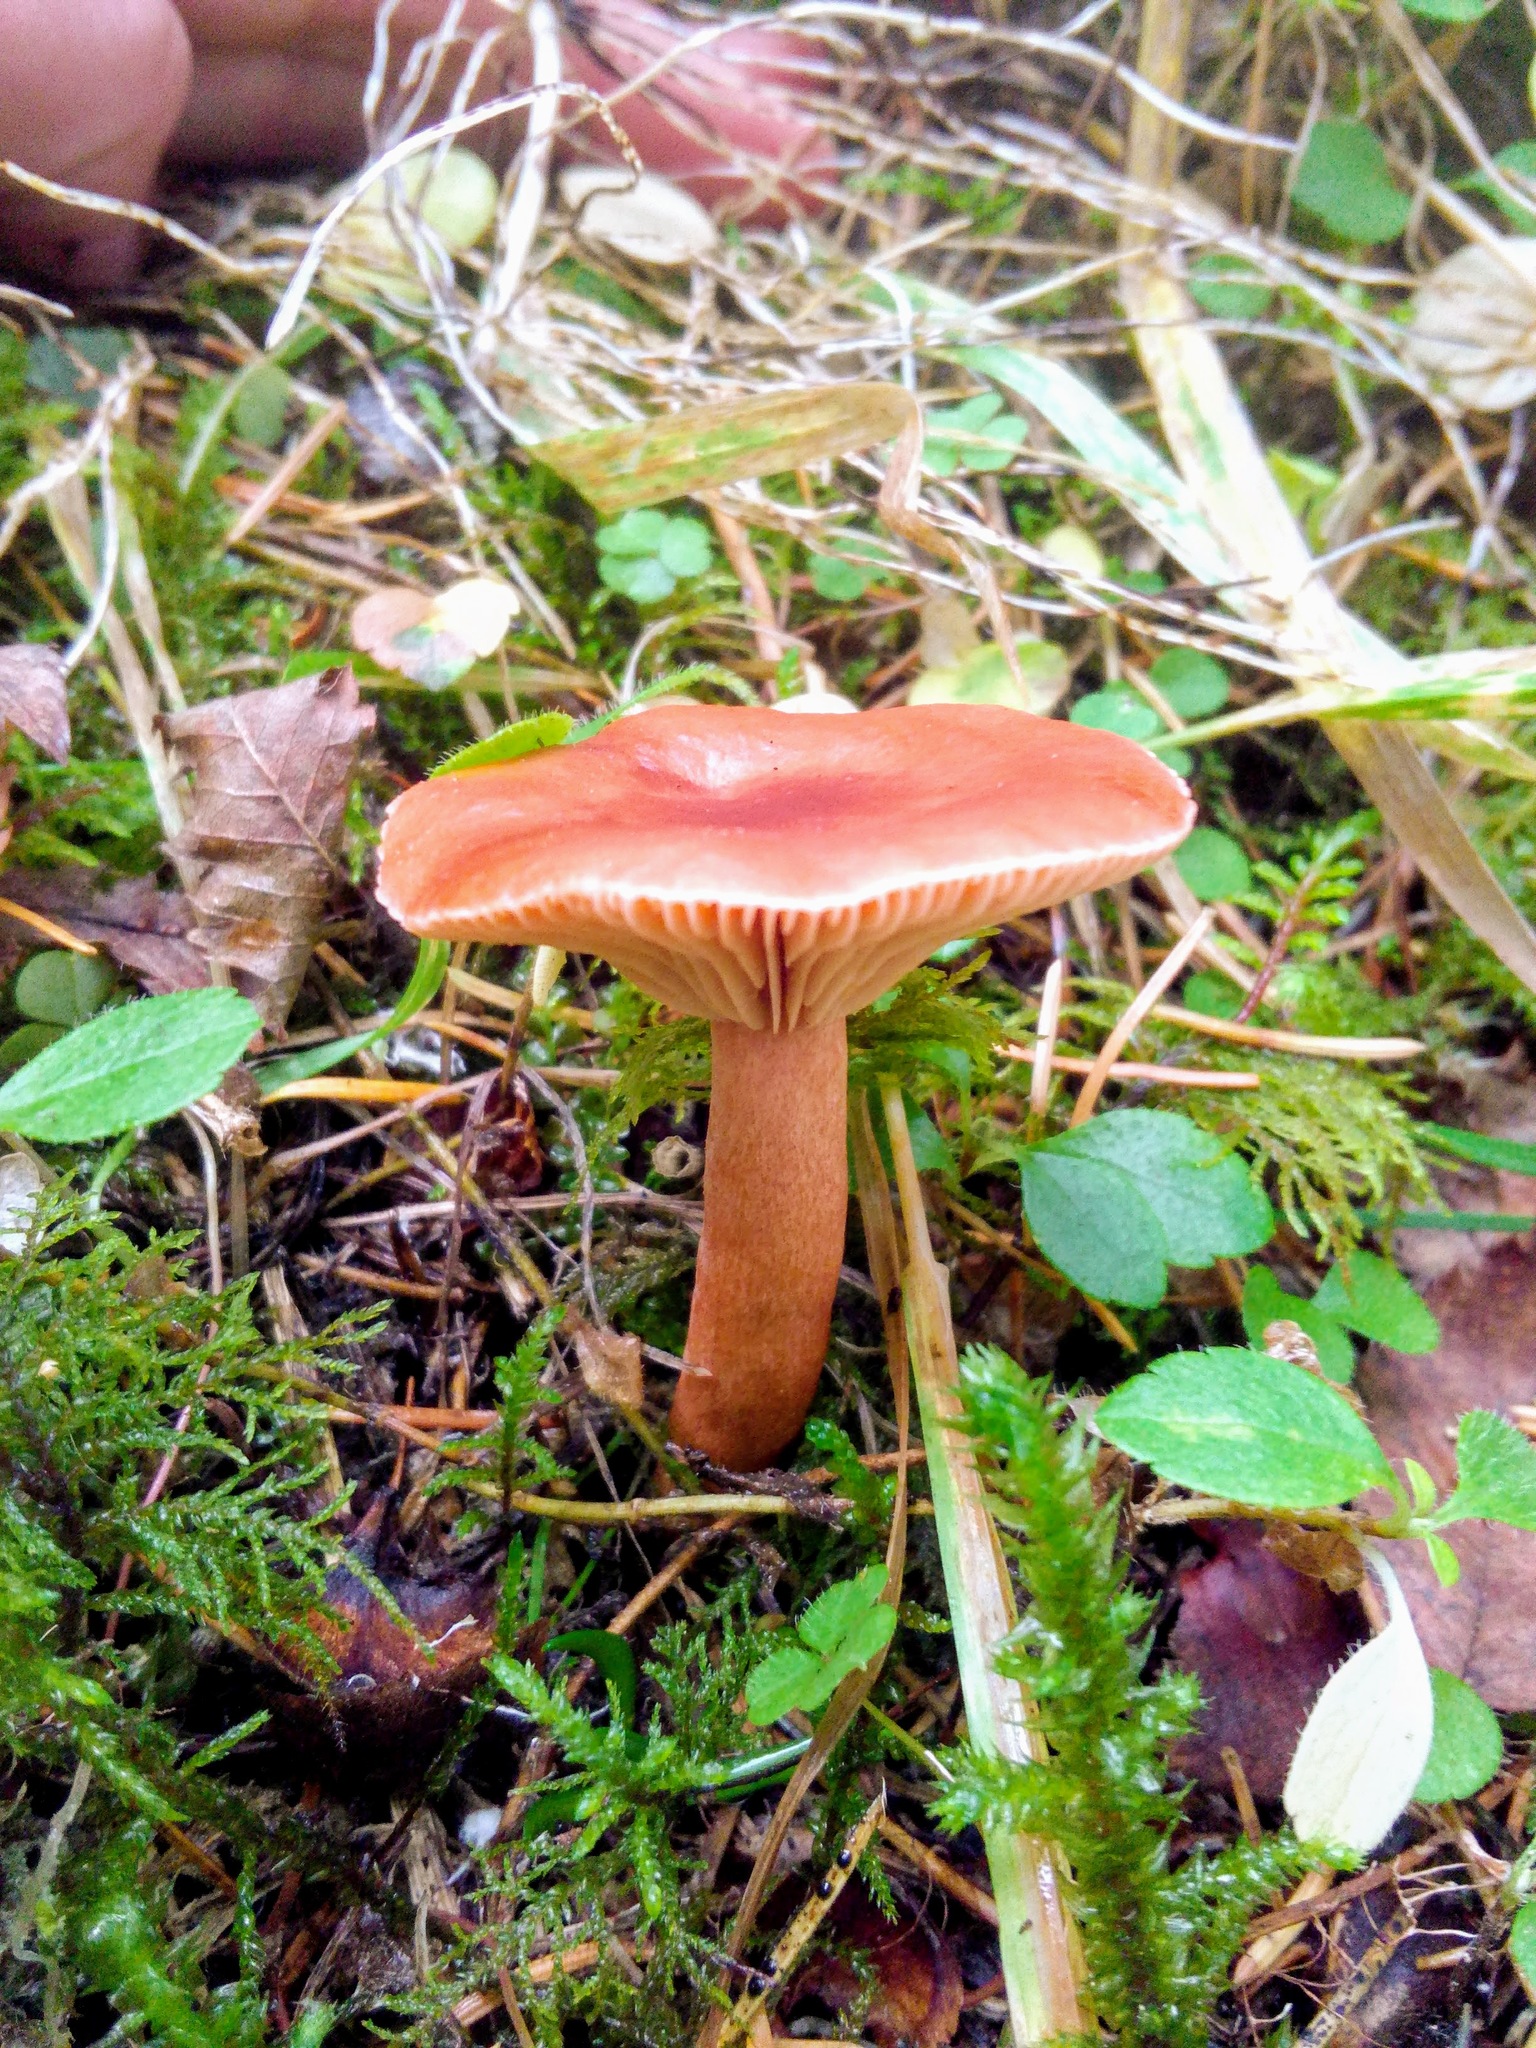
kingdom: Fungi
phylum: Basidiomycota
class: Agaricomycetes
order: Russulales
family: Russulaceae
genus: Lactarius
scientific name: Lactarius rufus
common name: Rufous milk-cap
